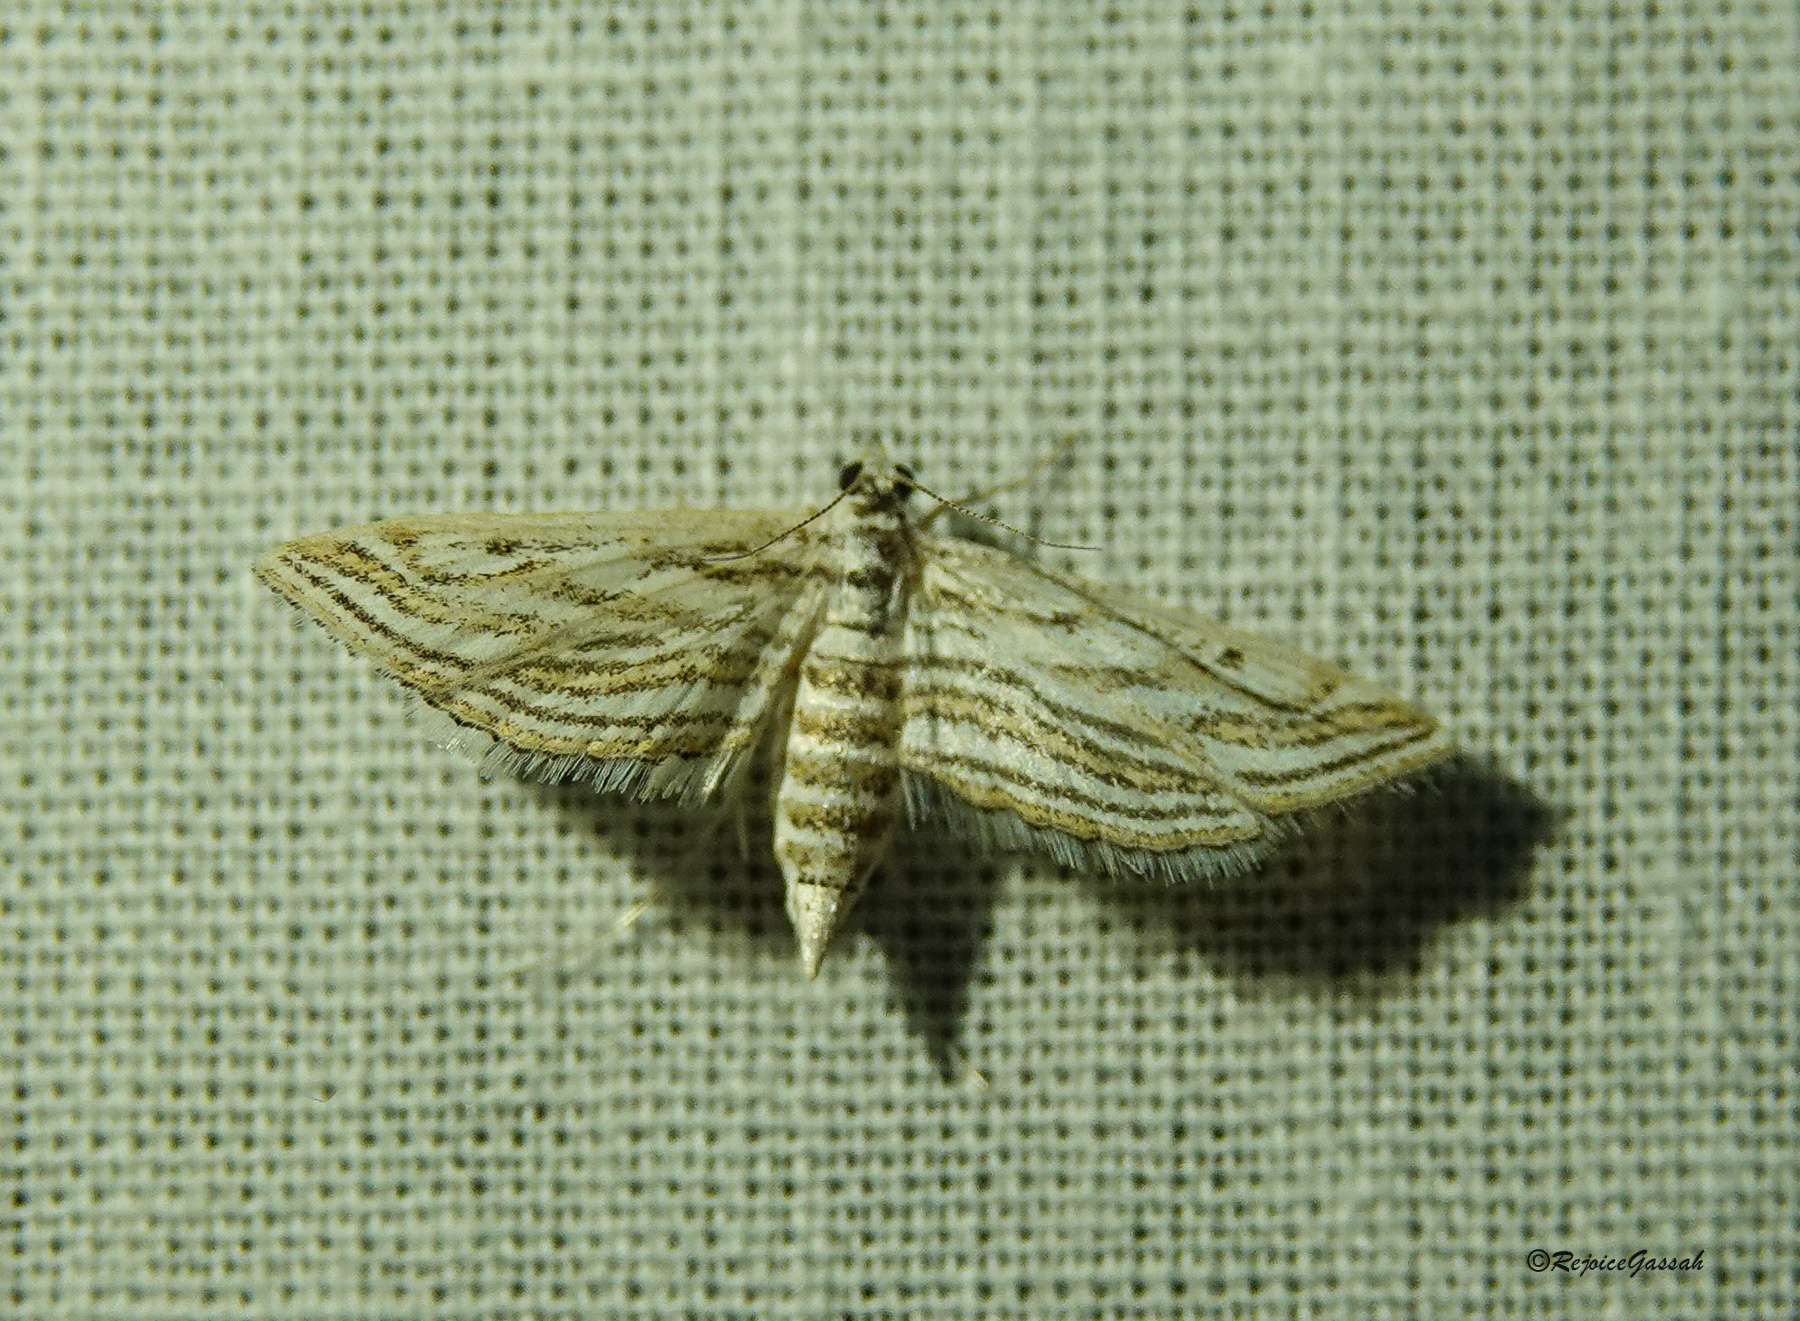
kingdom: Animalia
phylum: Arthropoda
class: Insecta
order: Lepidoptera
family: Crambidae
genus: Parapoynx
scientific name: Parapoynx fluctuosalis
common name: Moth
